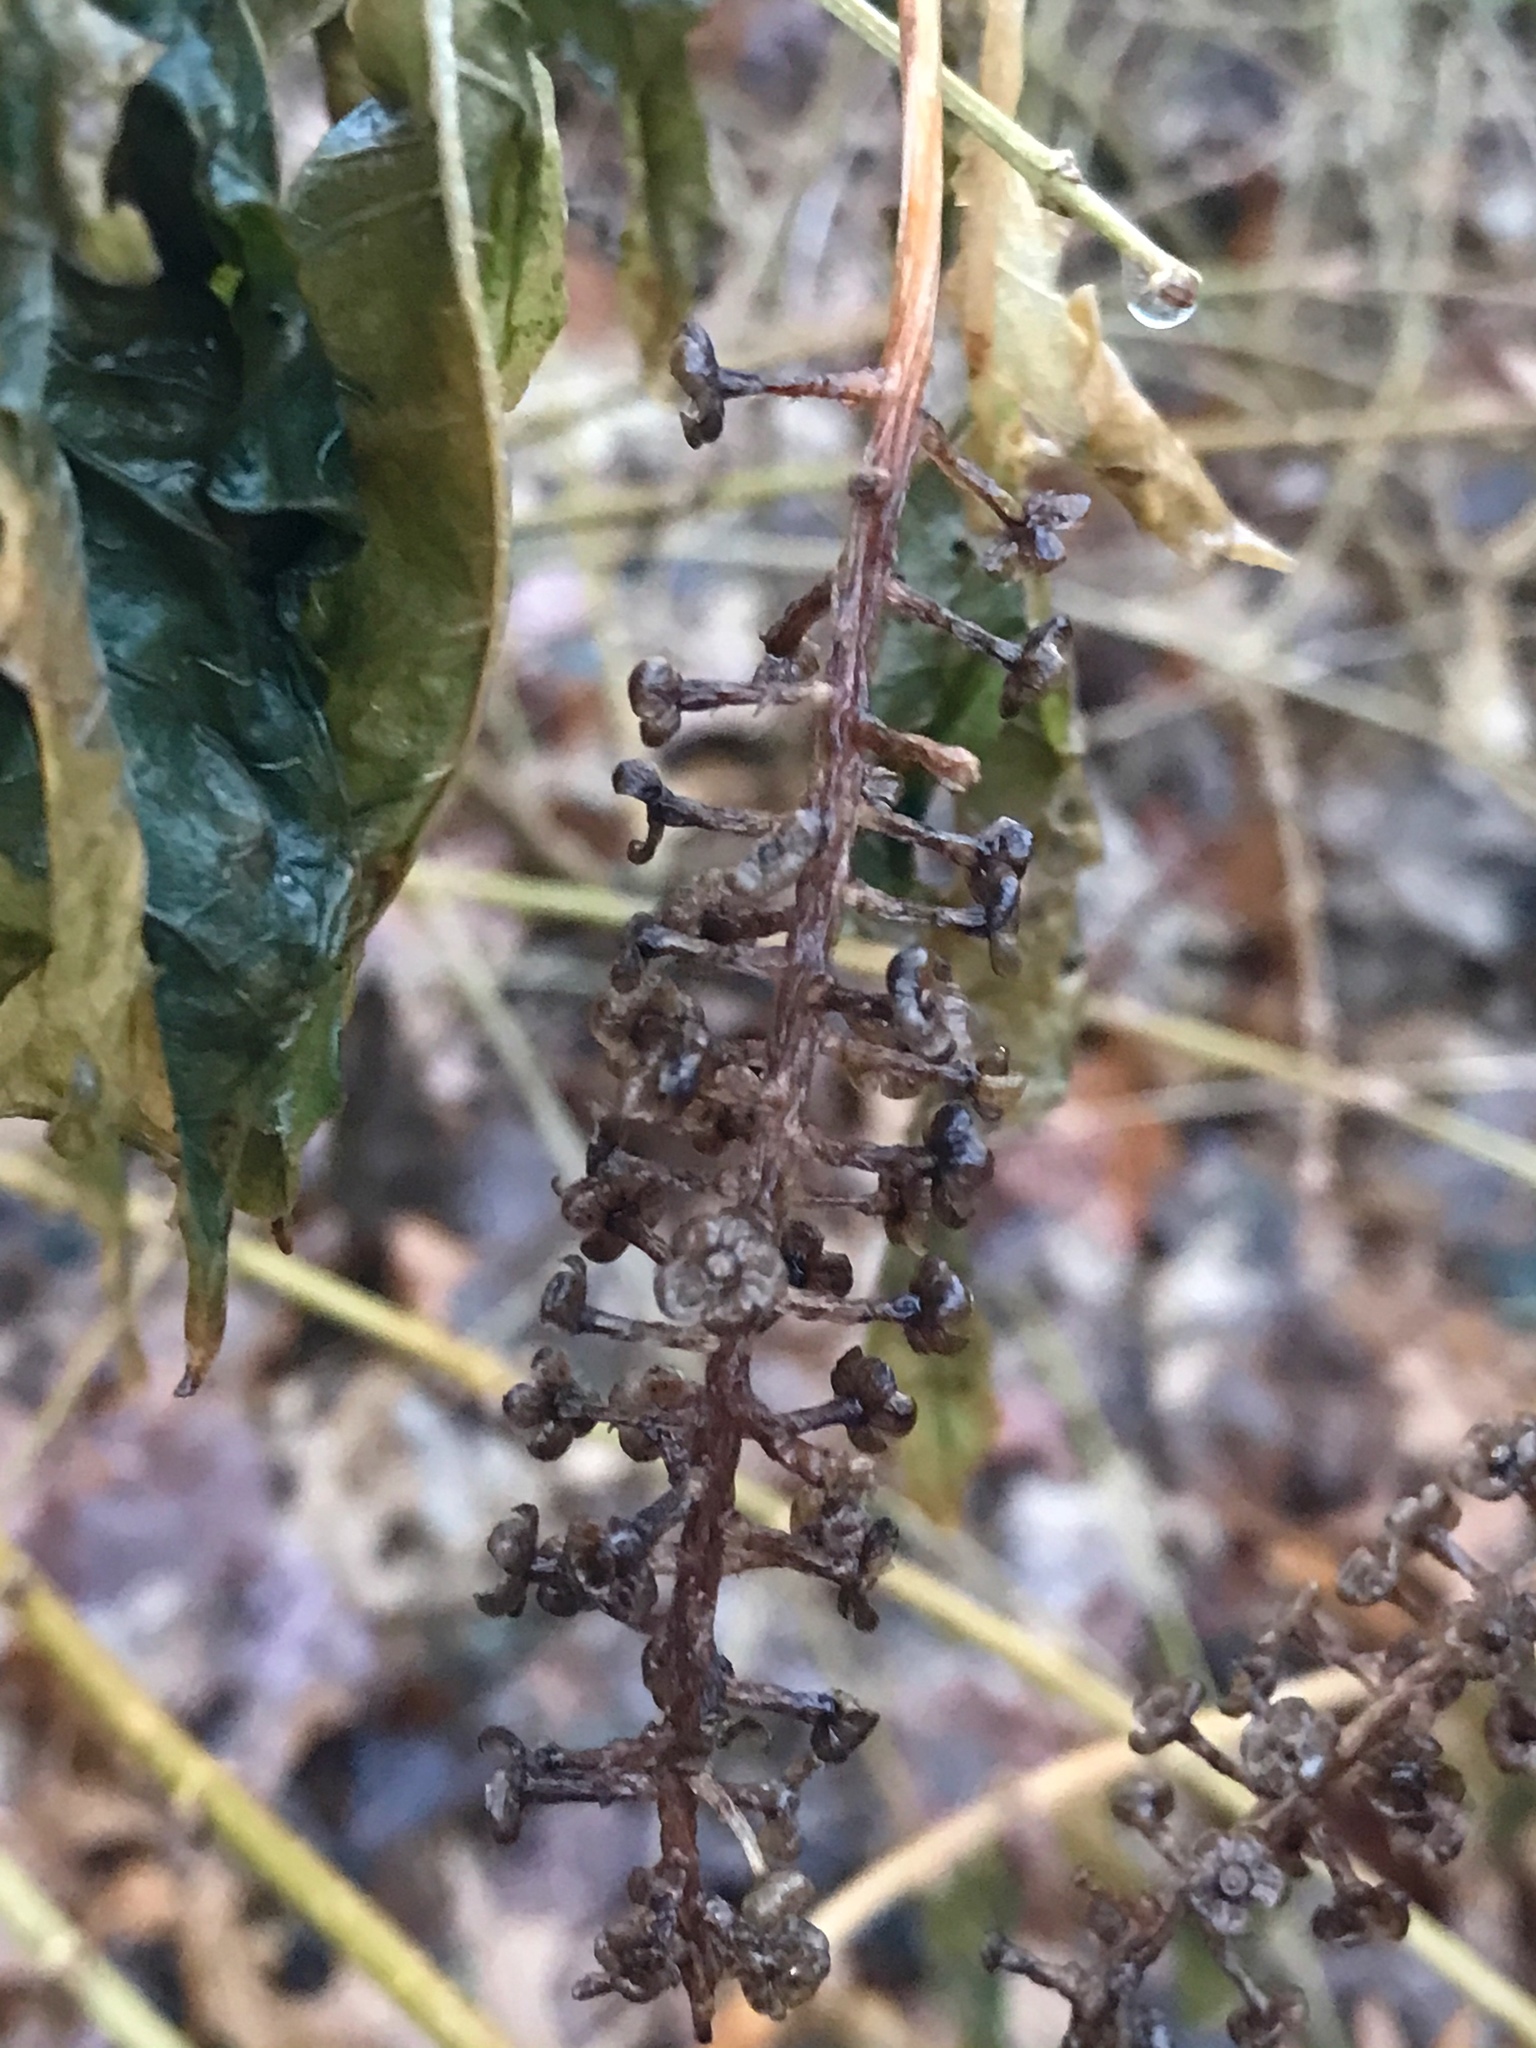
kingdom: Plantae
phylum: Tracheophyta
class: Magnoliopsida
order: Caryophyllales
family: Phytolaccaceae
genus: Phytolacca
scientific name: Phytolacca americana
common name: American pokeweed
